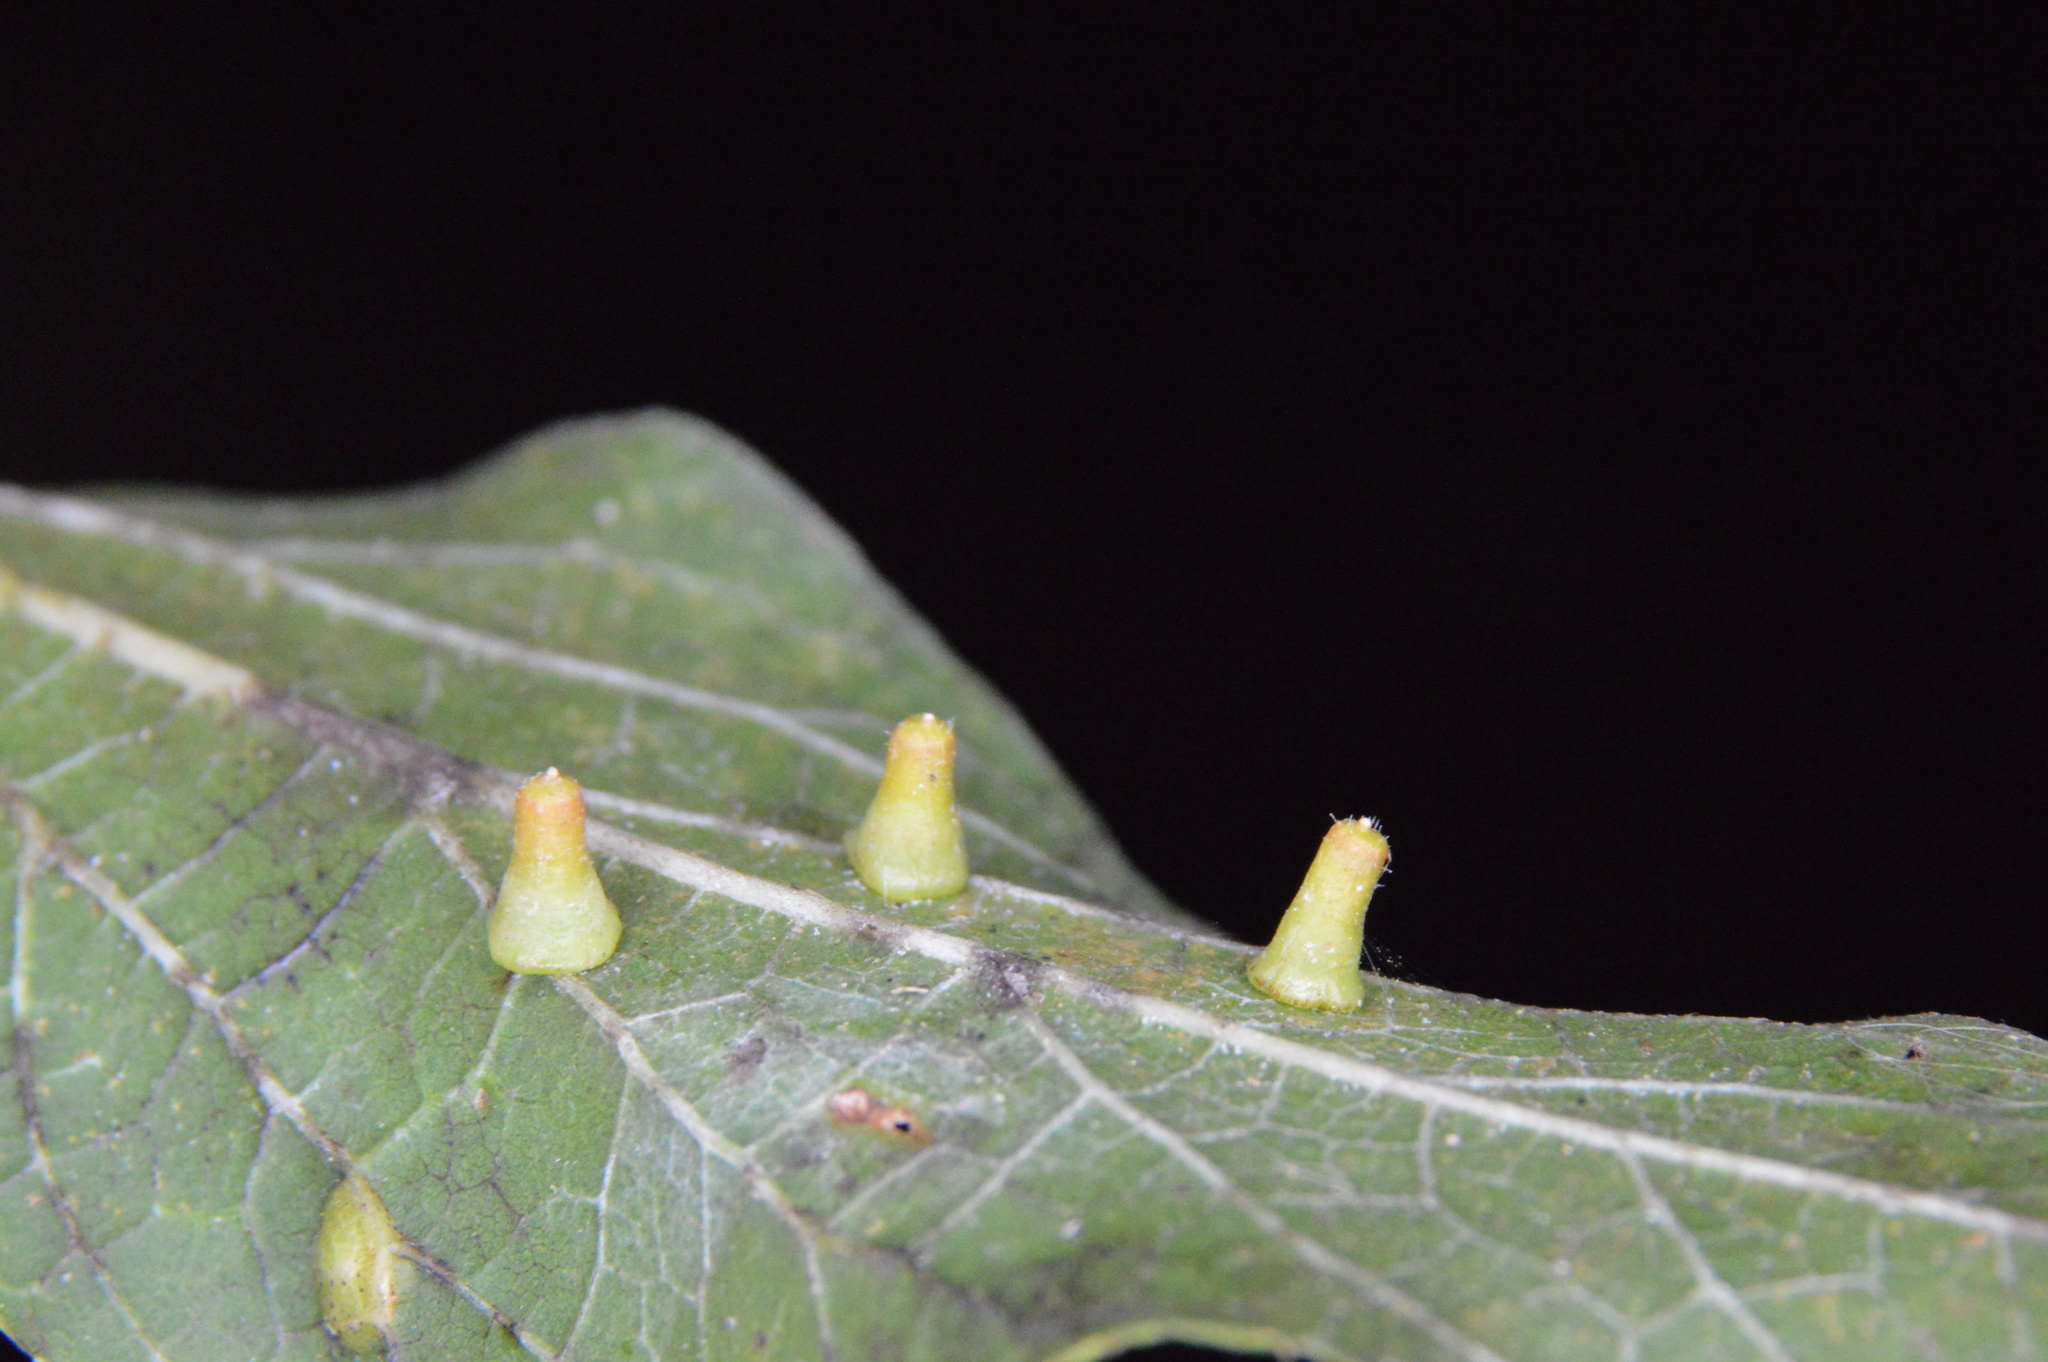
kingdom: Animalia
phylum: Arthropoda
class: Insecta
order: Diptera
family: Cecidomyiidae
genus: Celticecis
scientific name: Celticecis aciculata
